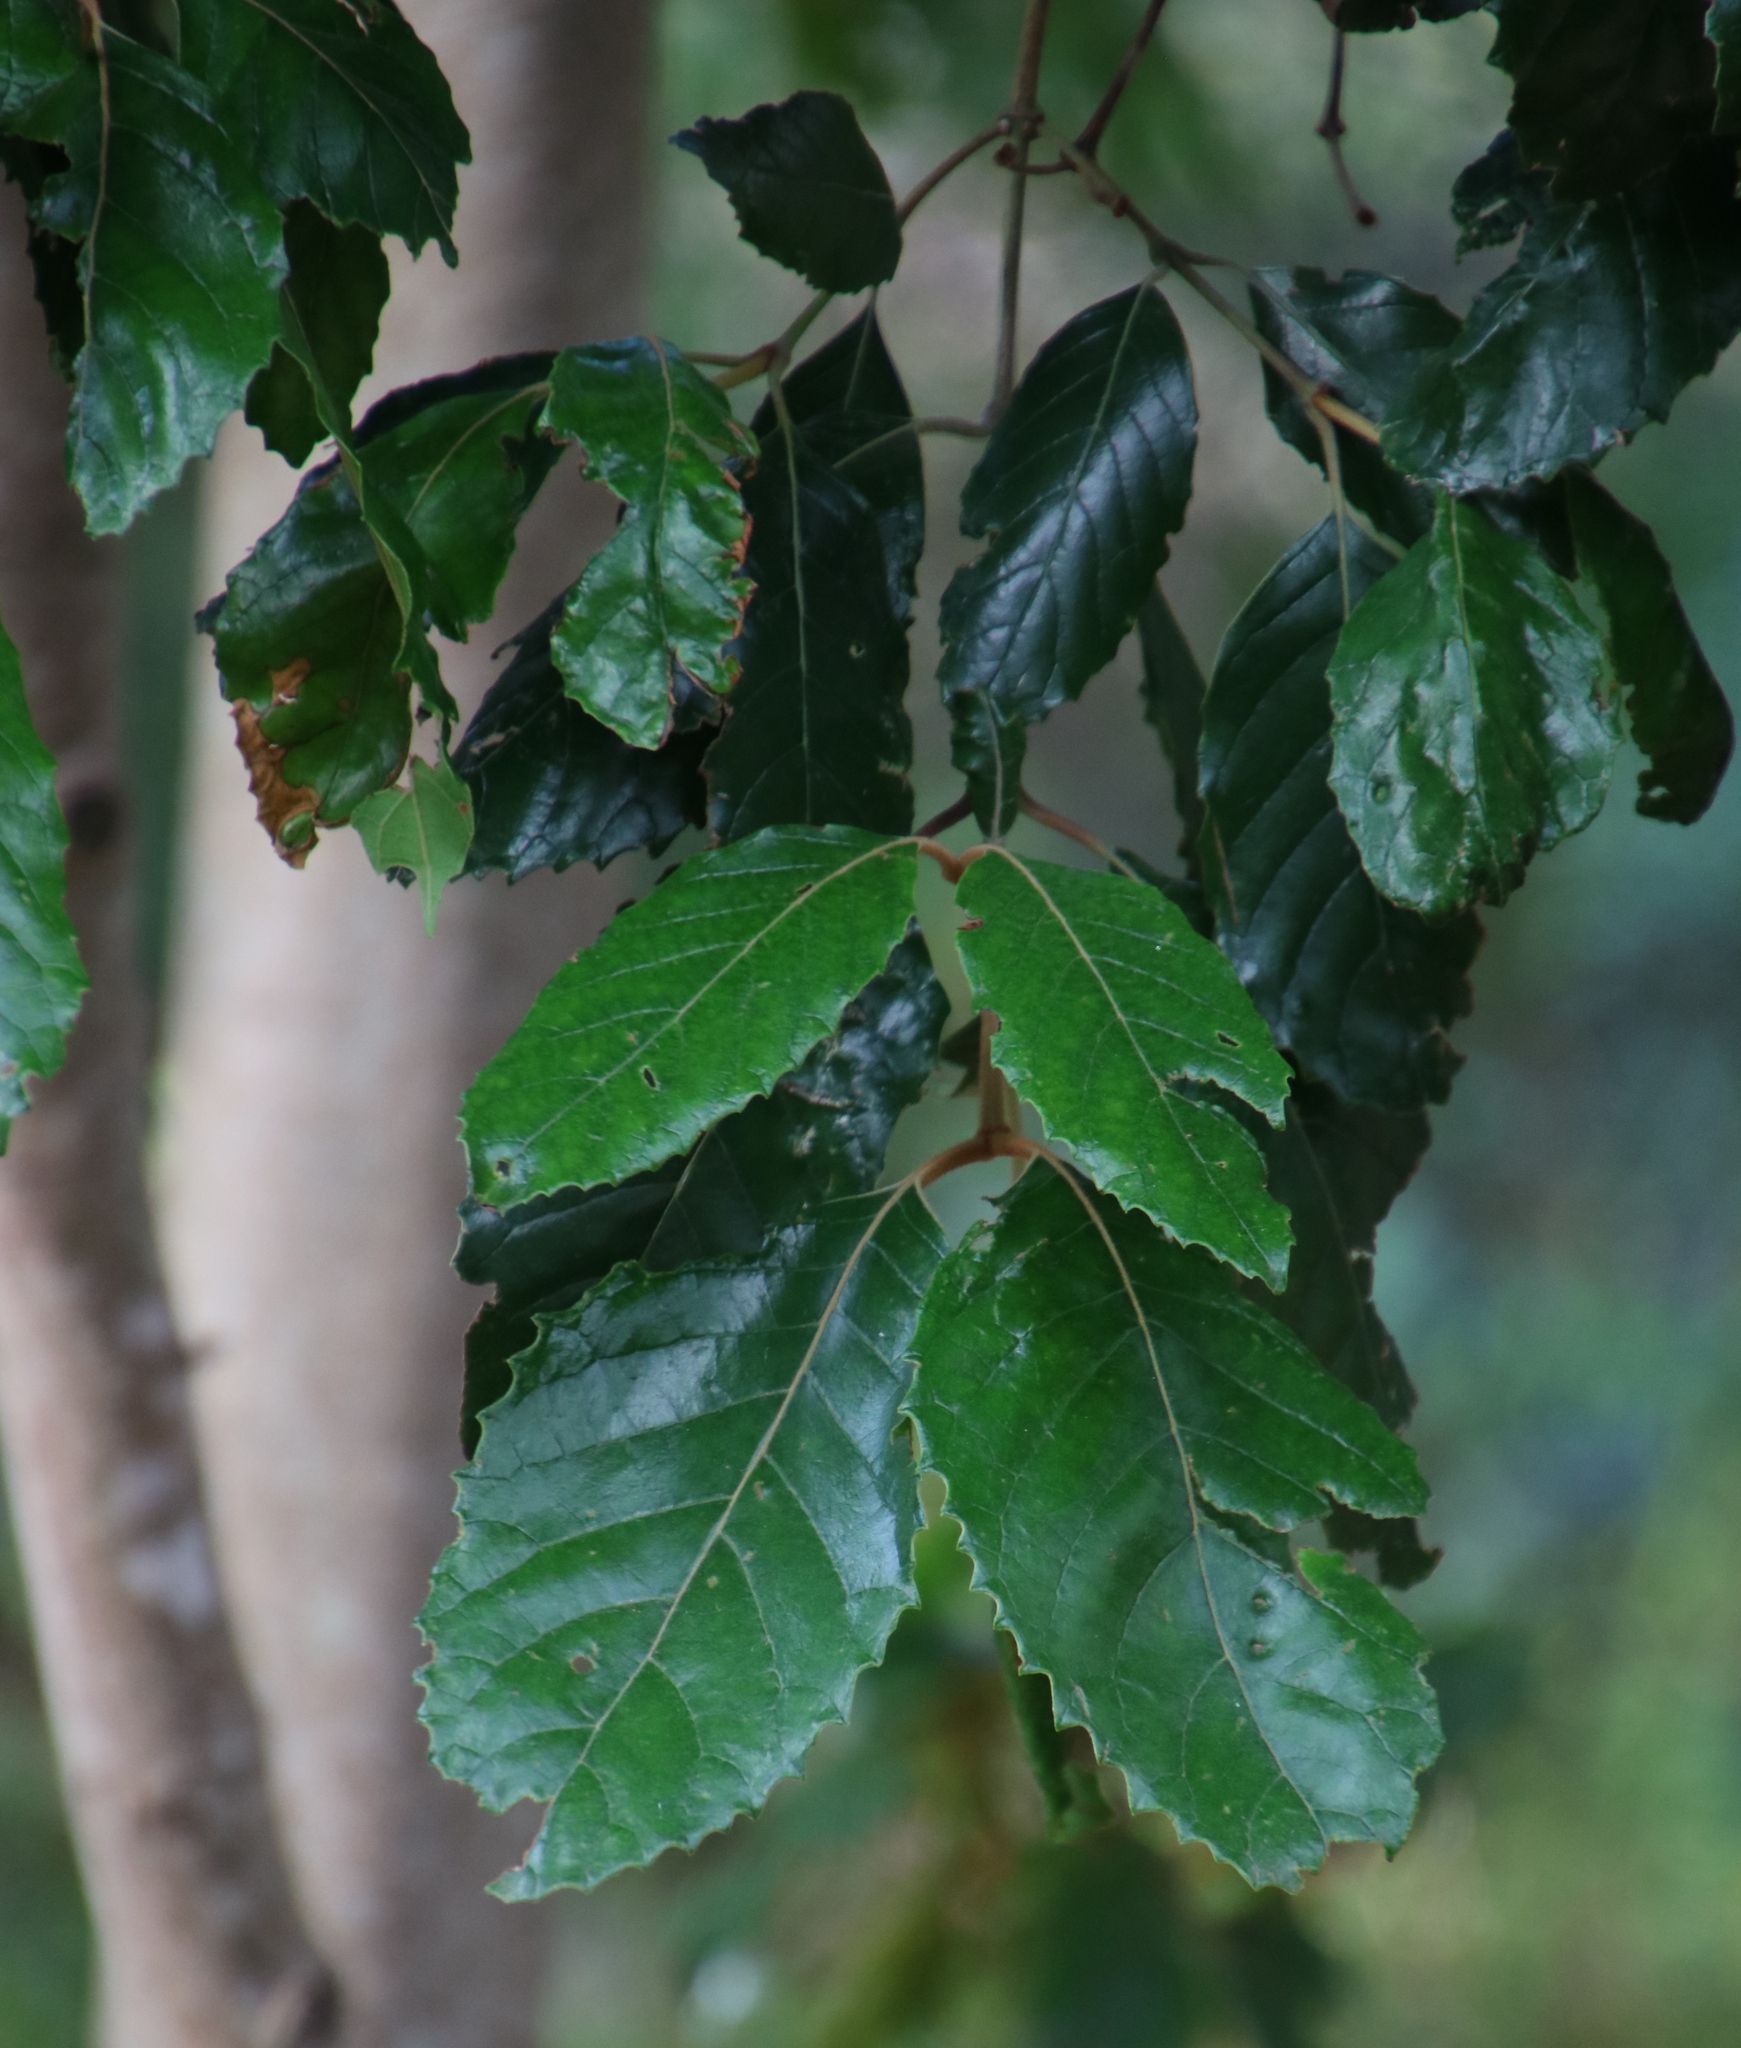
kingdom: Plantae
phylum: Tracheophyta
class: Magnoliopsida
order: Cornales
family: Curtisiaceae
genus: Curtisia
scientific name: Curtisia dentata
